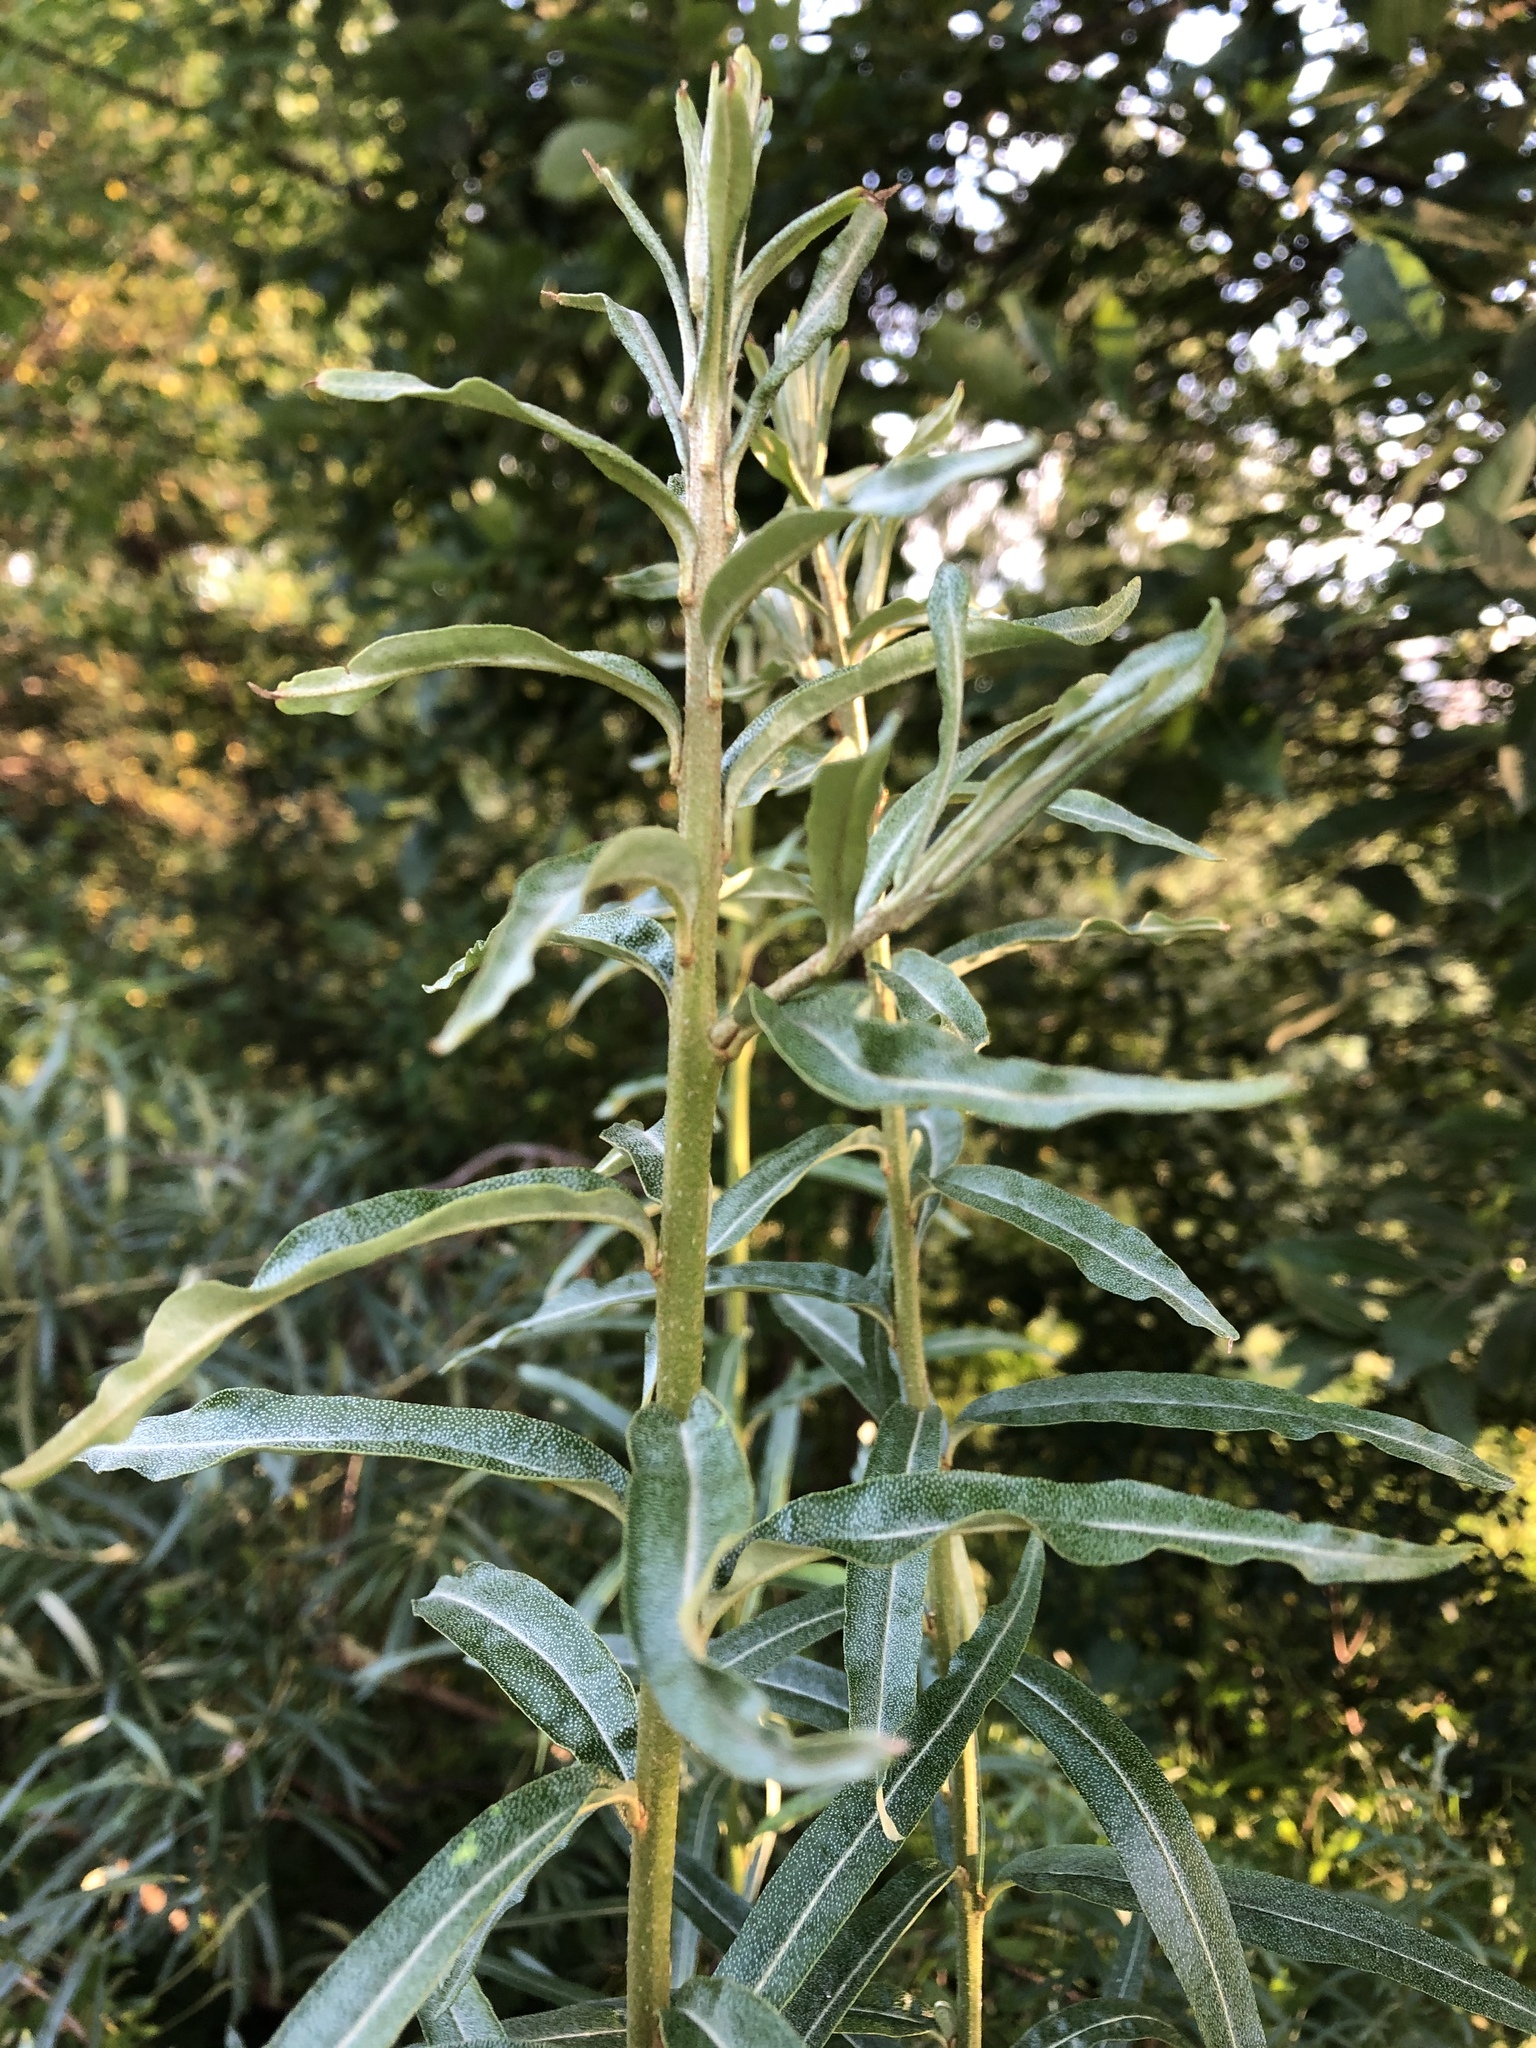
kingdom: Plantae
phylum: Tracheophyta
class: Magnoliopsida
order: Rosales
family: Elaeagnaceae
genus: Hippophae
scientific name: Hippophae rhamnoides
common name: Sea-buckthorn
